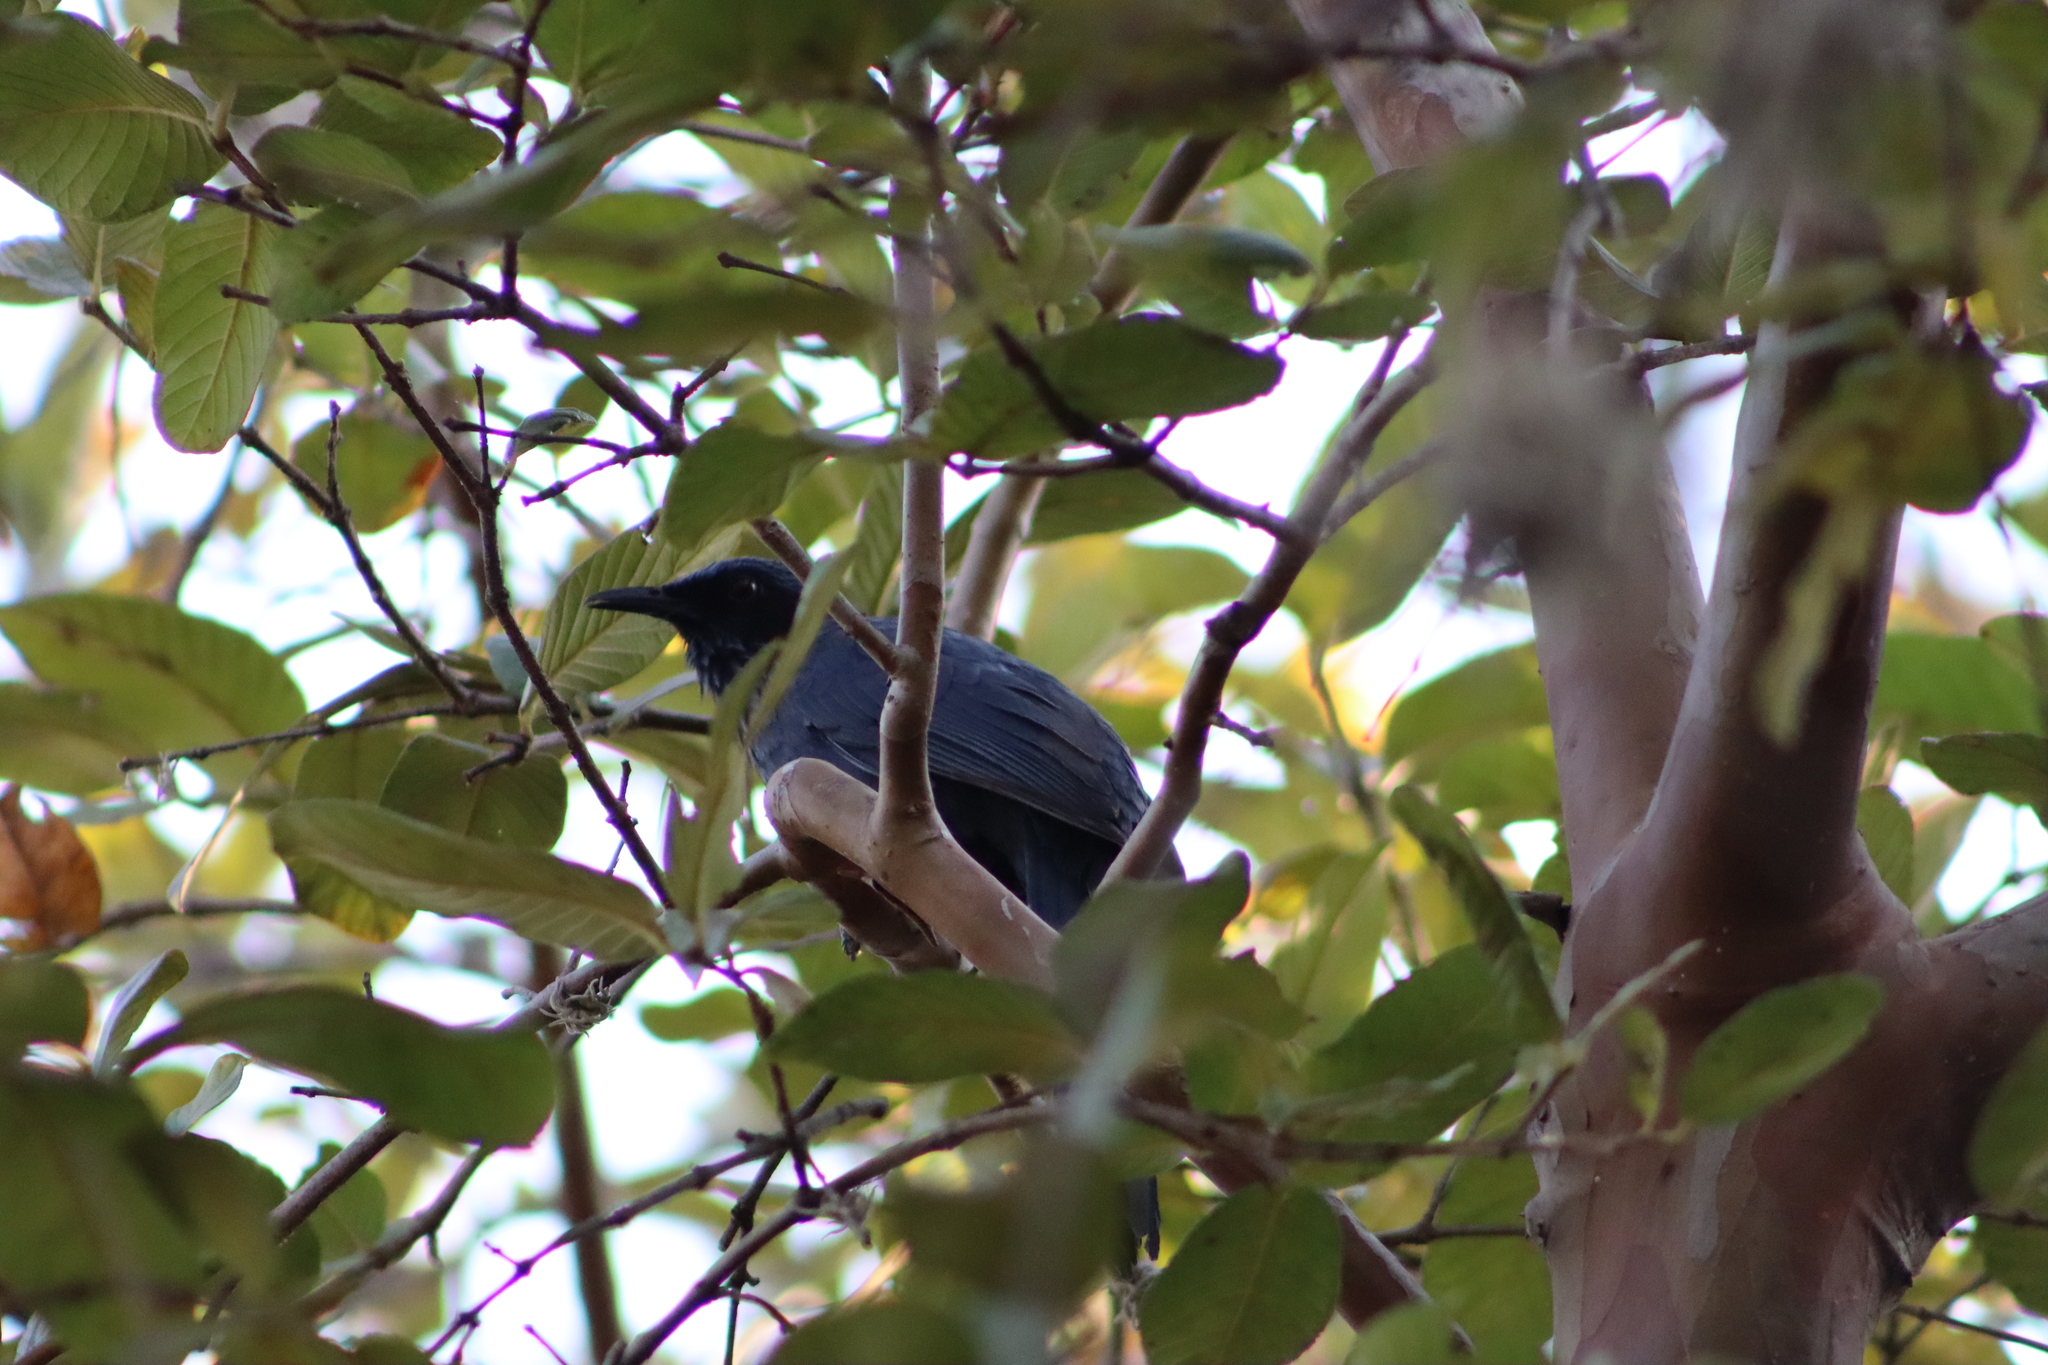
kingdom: Animalia
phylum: Chordata
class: Aves
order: Passeriformes
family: Mimidae
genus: Melanotis
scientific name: Melanotis caerulescens
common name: Blue mockingbird
